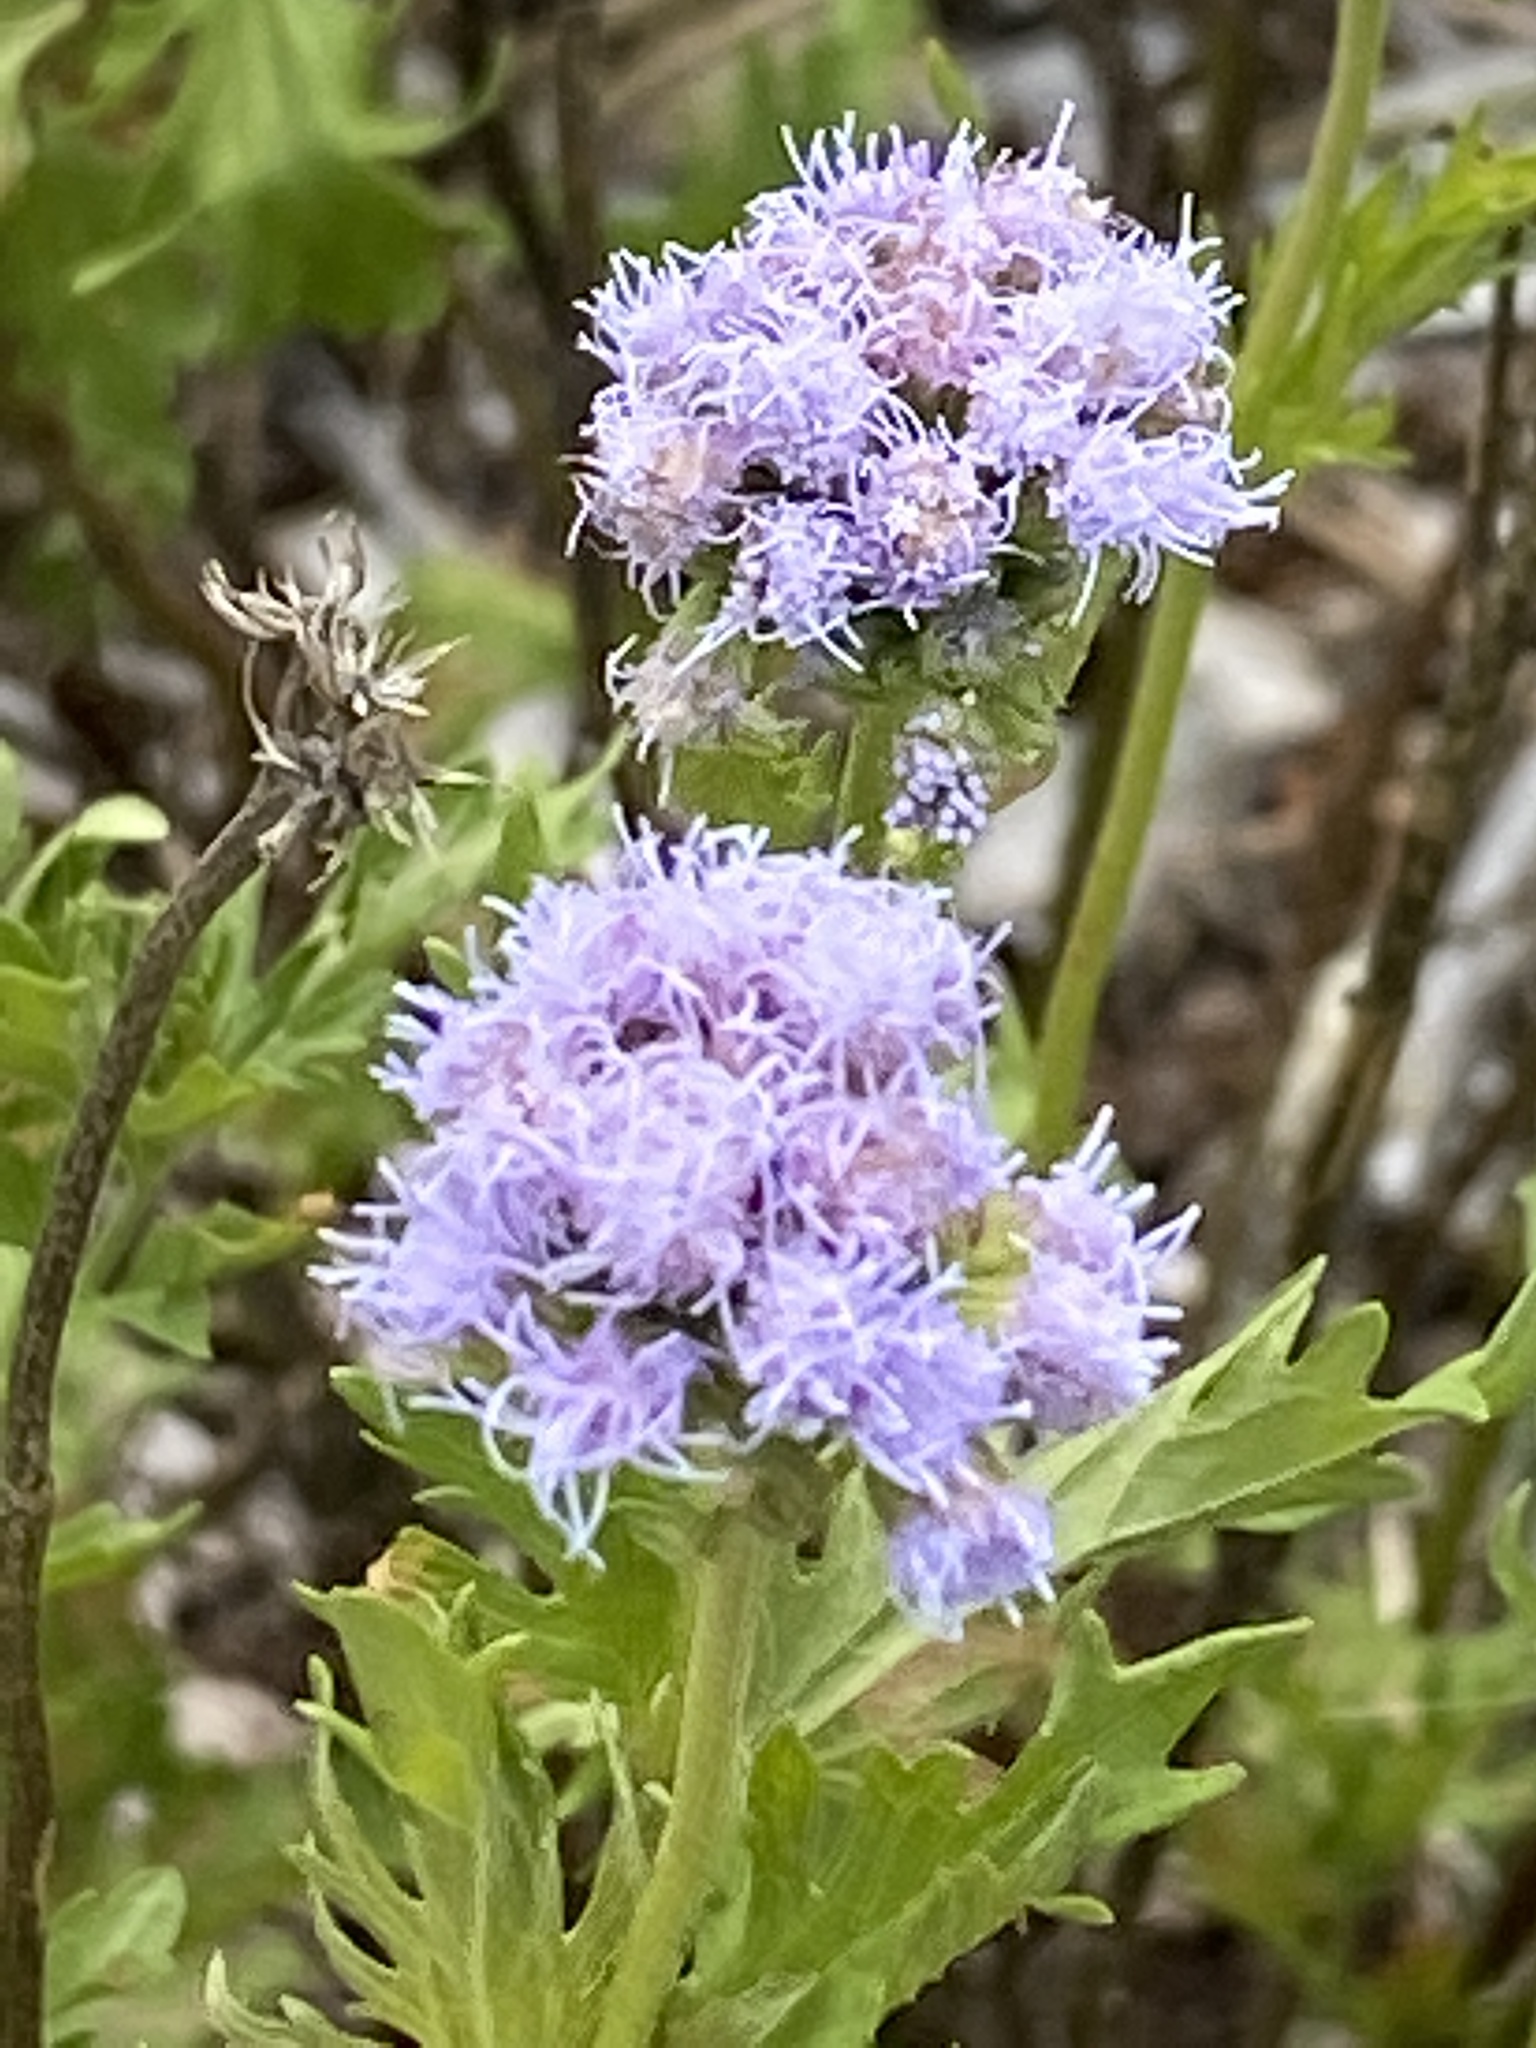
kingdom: Plantae
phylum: Tracheophyta
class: Magnoliopsida
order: Asterales
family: Asteraceae
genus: Conoclinium
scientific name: Conoclinium dissectum
